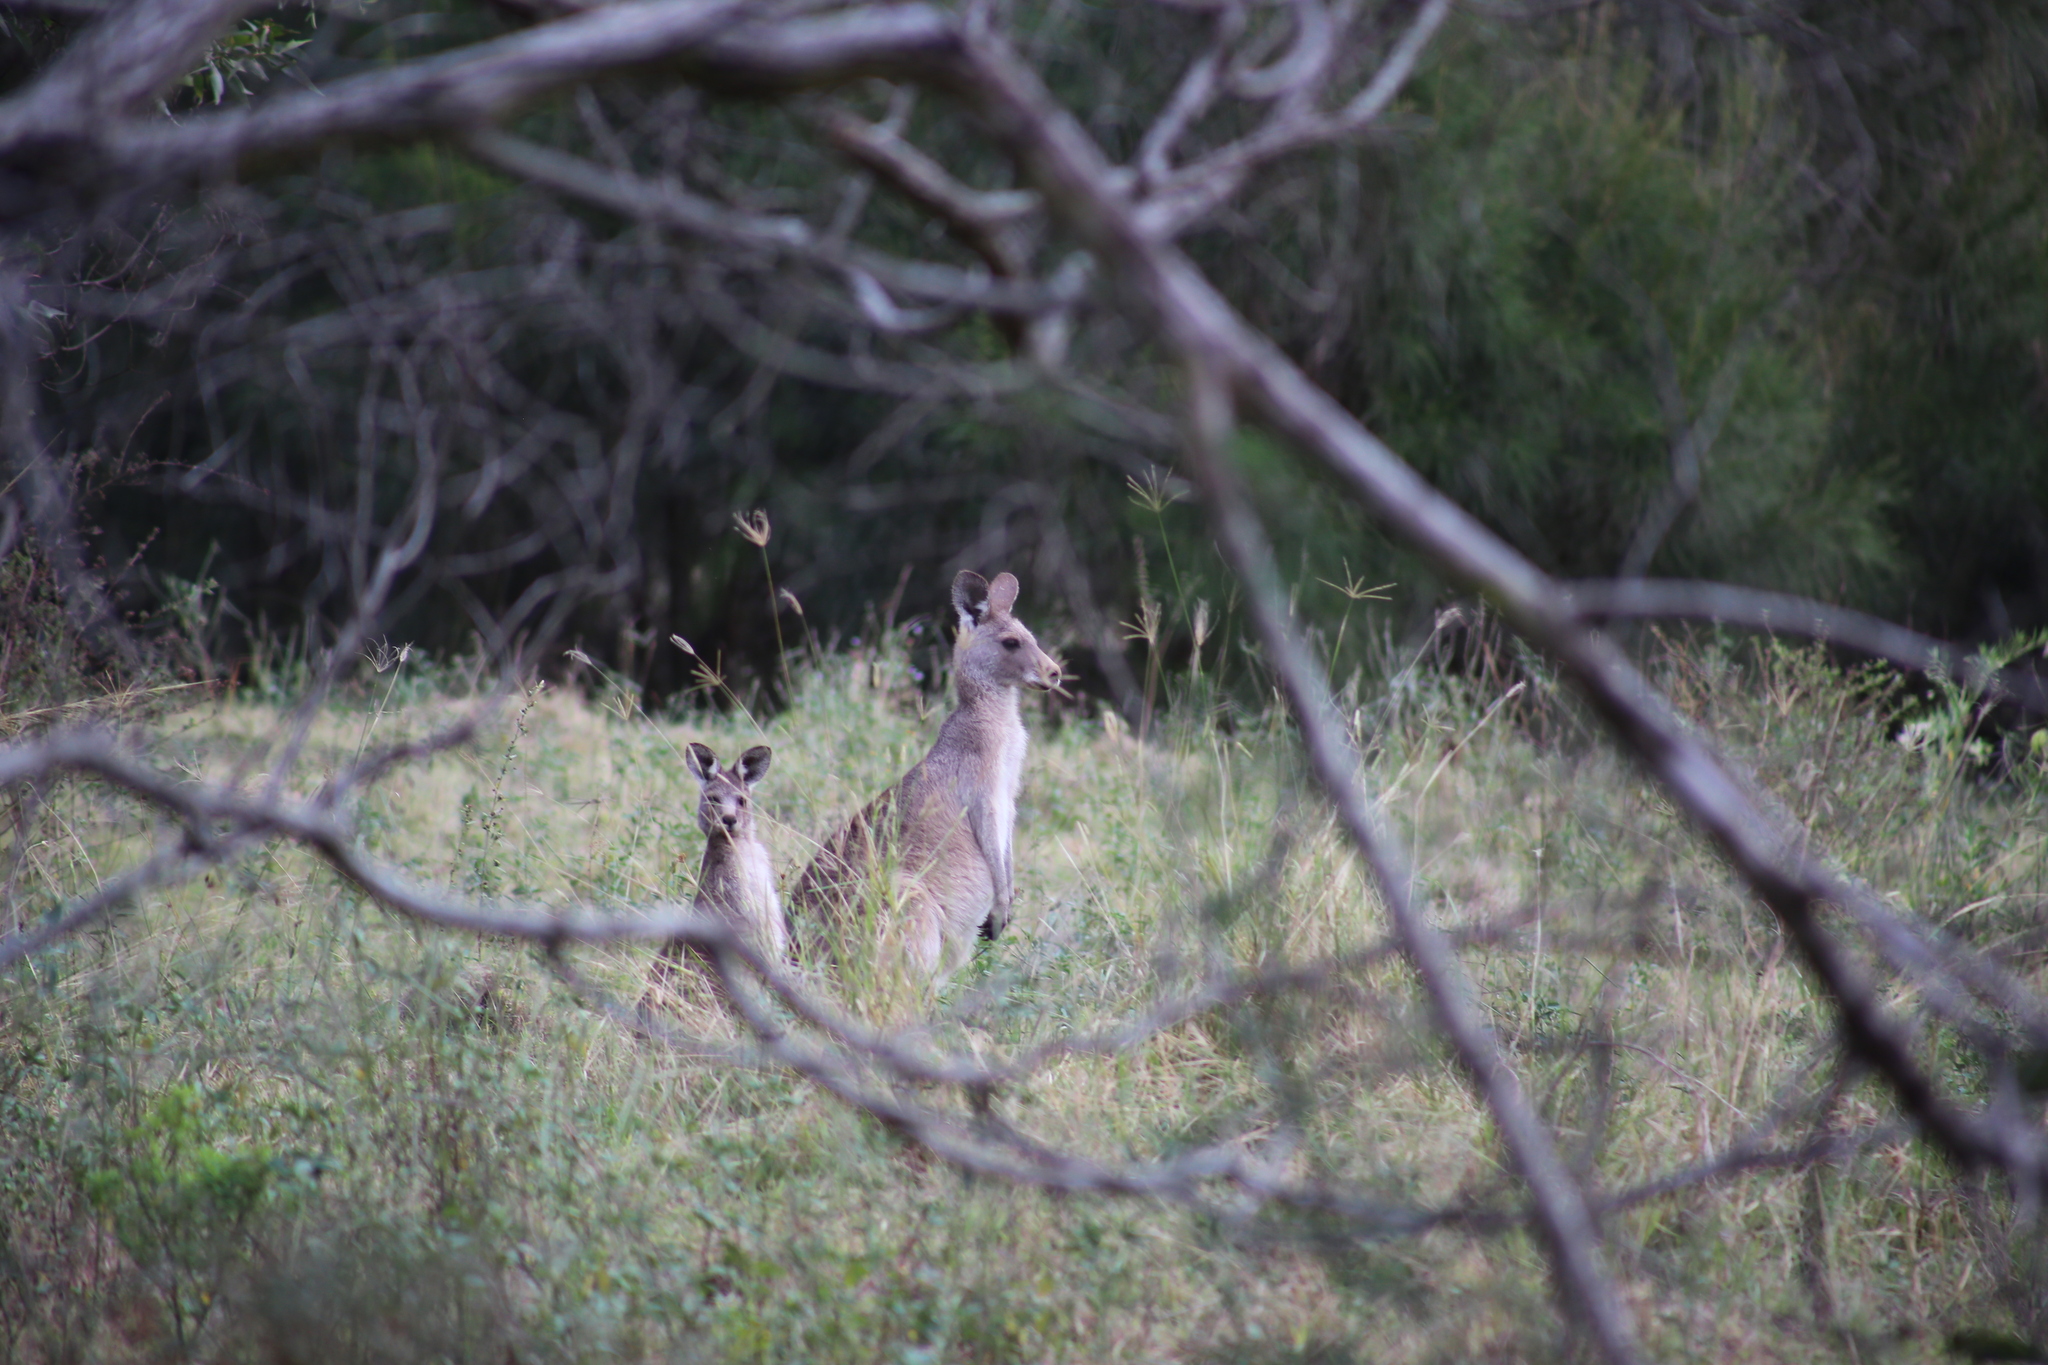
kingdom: Animalia
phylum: Chordata
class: Mammalia
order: Diprotodontia
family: Macropodidae
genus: Macropus
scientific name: Macropus giganteus
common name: Eastern grey kangaroo
